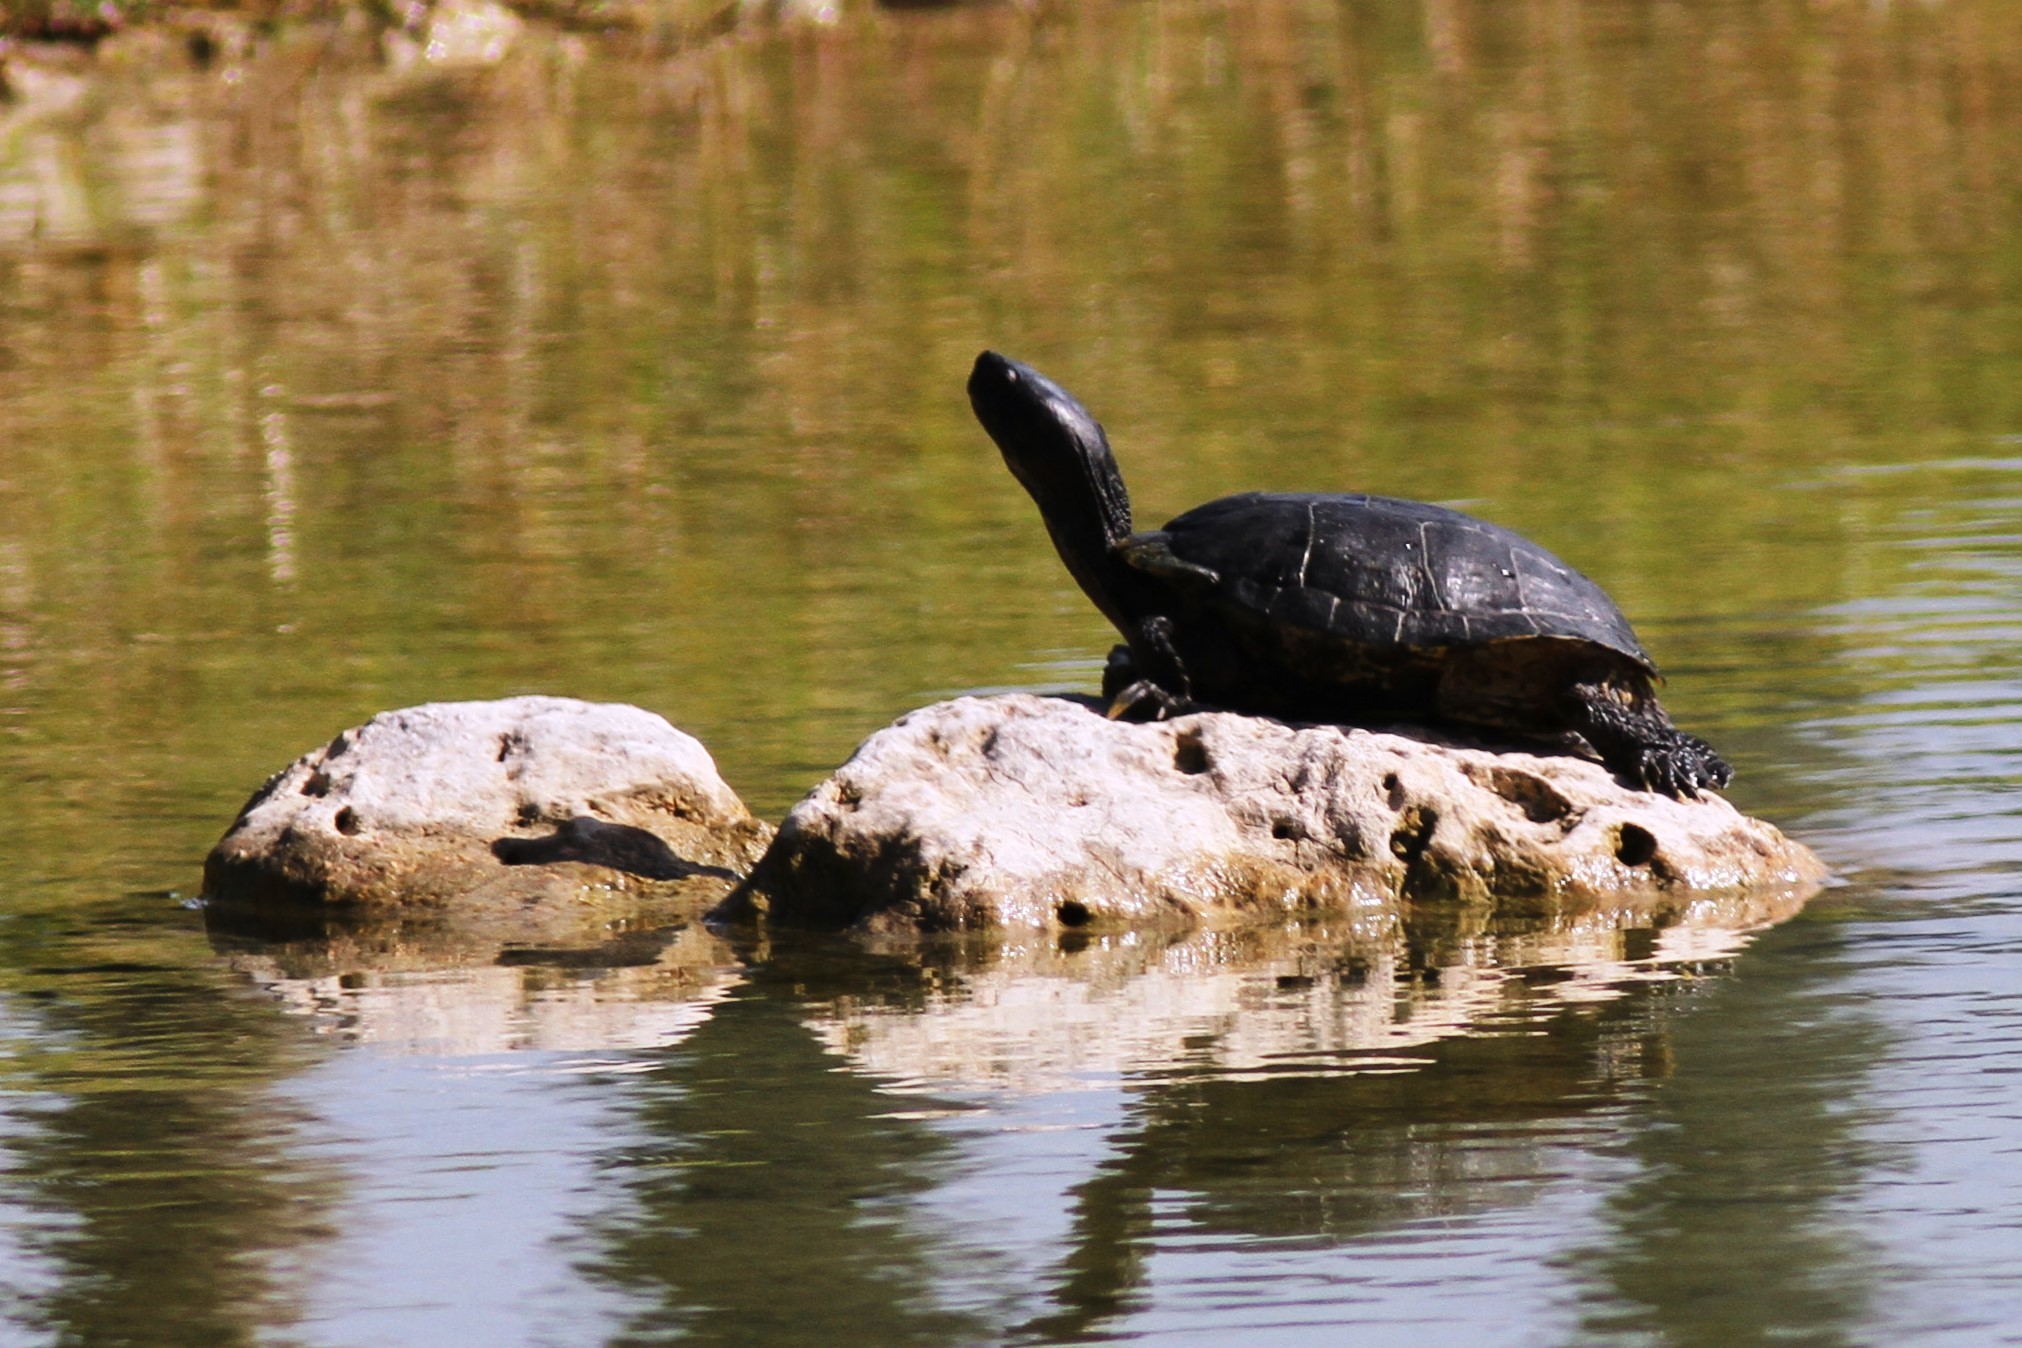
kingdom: Animalia
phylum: Chordata
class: Testudines
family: Emydidae
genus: Trachemys
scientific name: Trachemys scripta
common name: Slider
